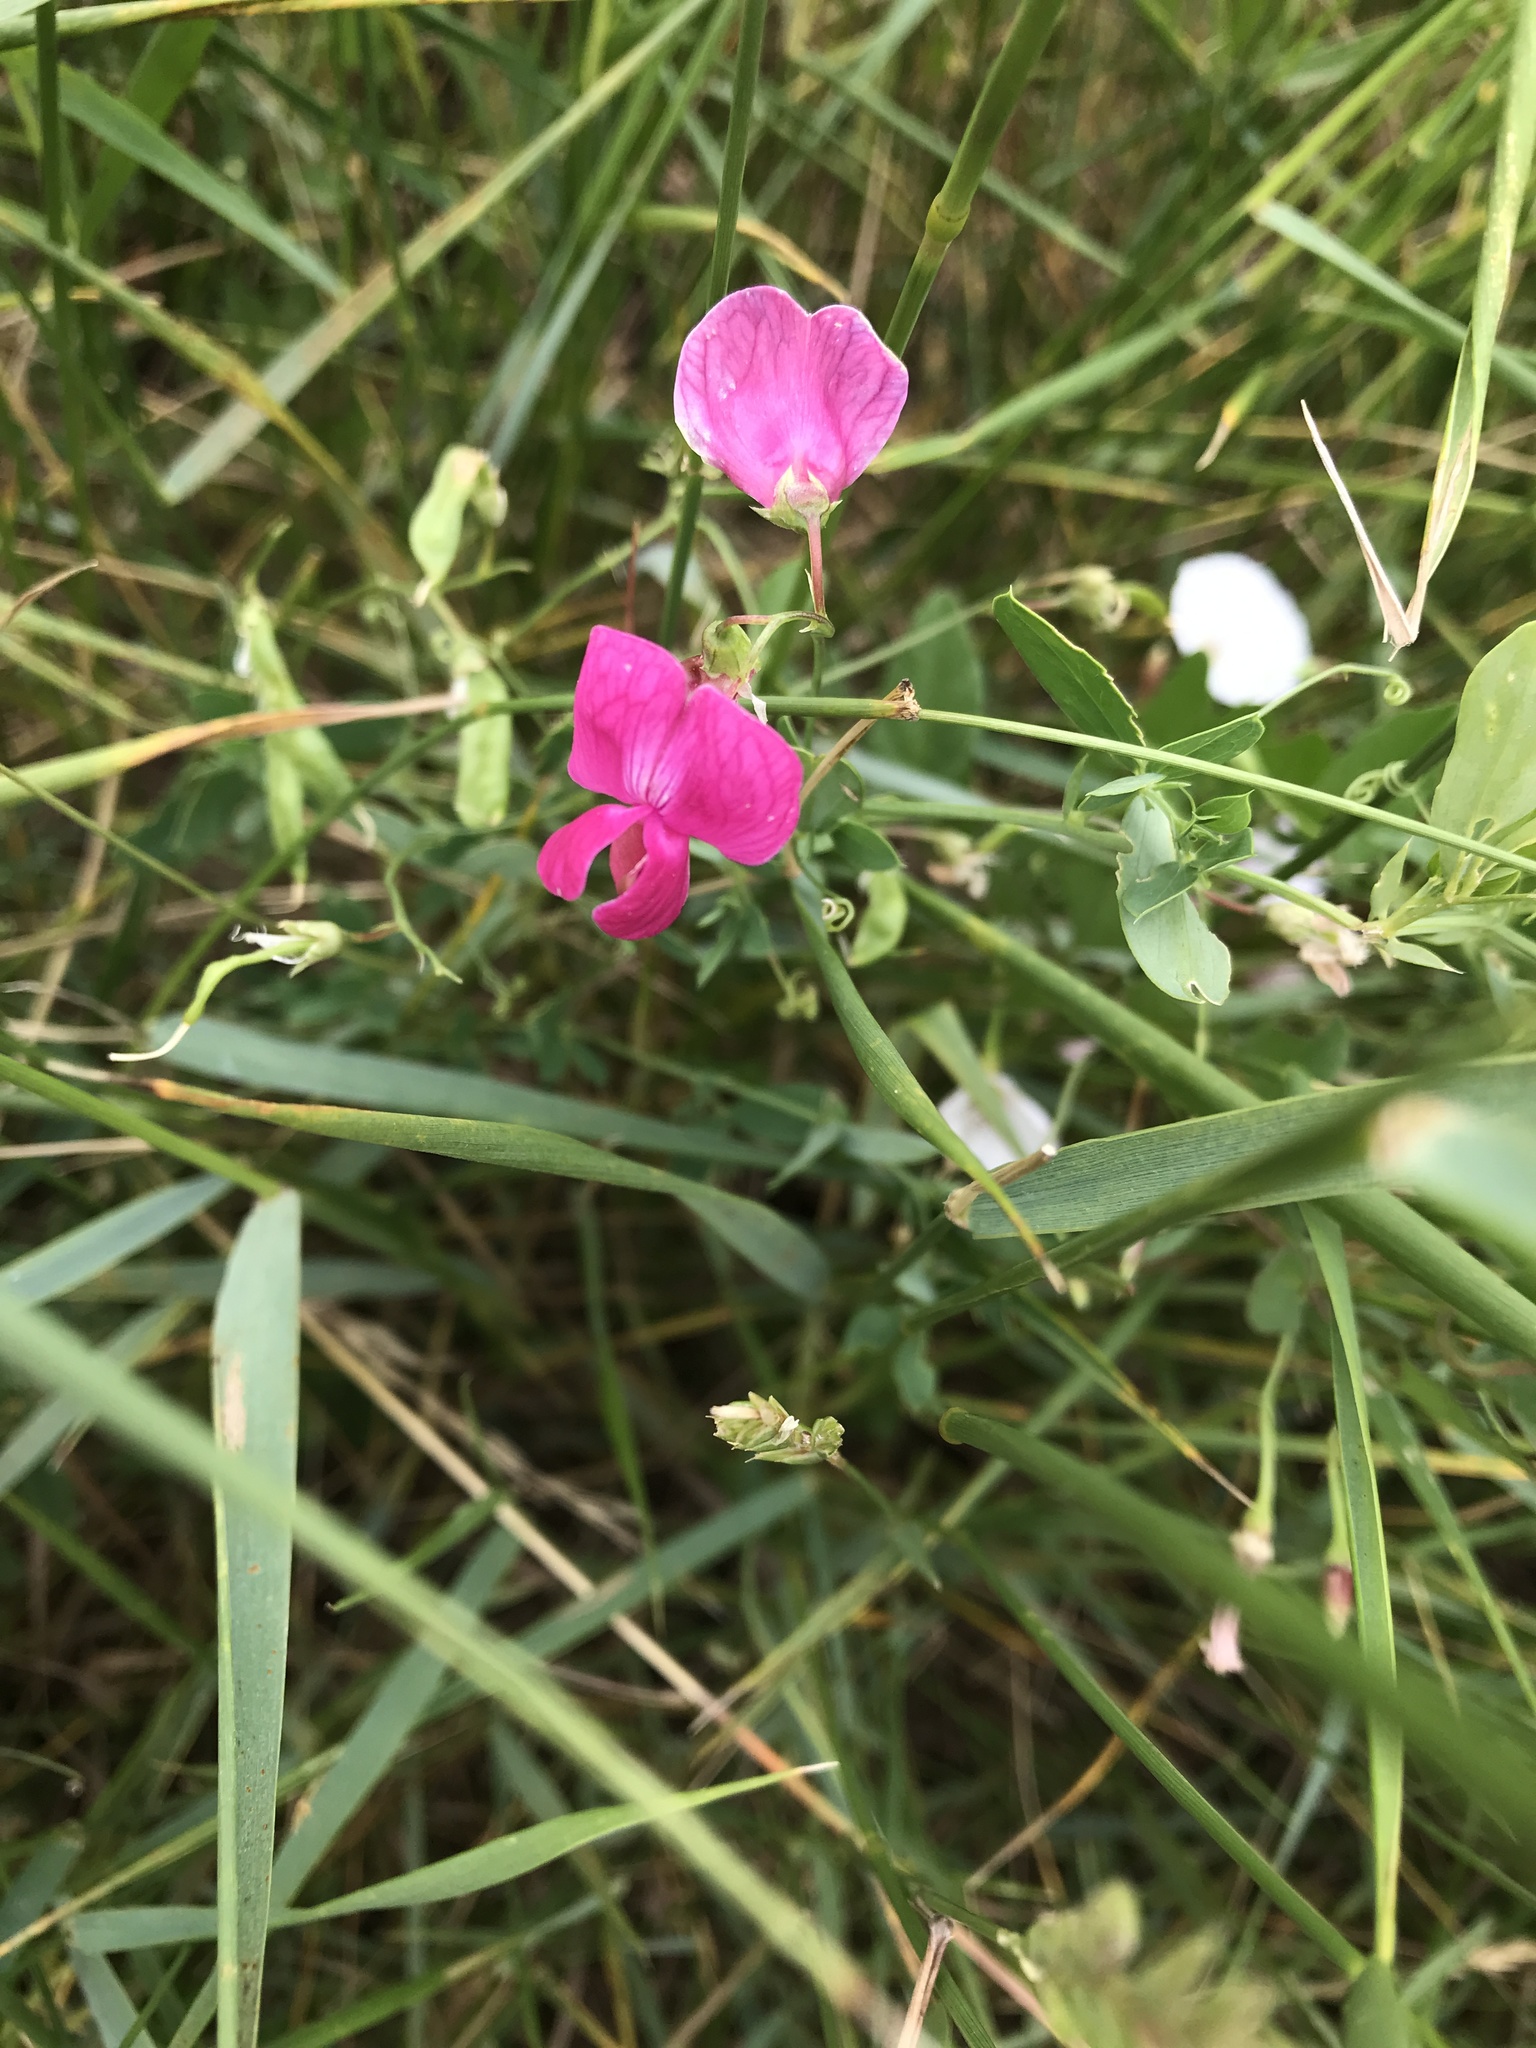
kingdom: Plantae
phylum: Tracheophyta
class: Magnoliopsida
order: Fabales
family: Fabaceae
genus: Lathyrus
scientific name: Lathyrus tuberosus
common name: Tuberous pea
